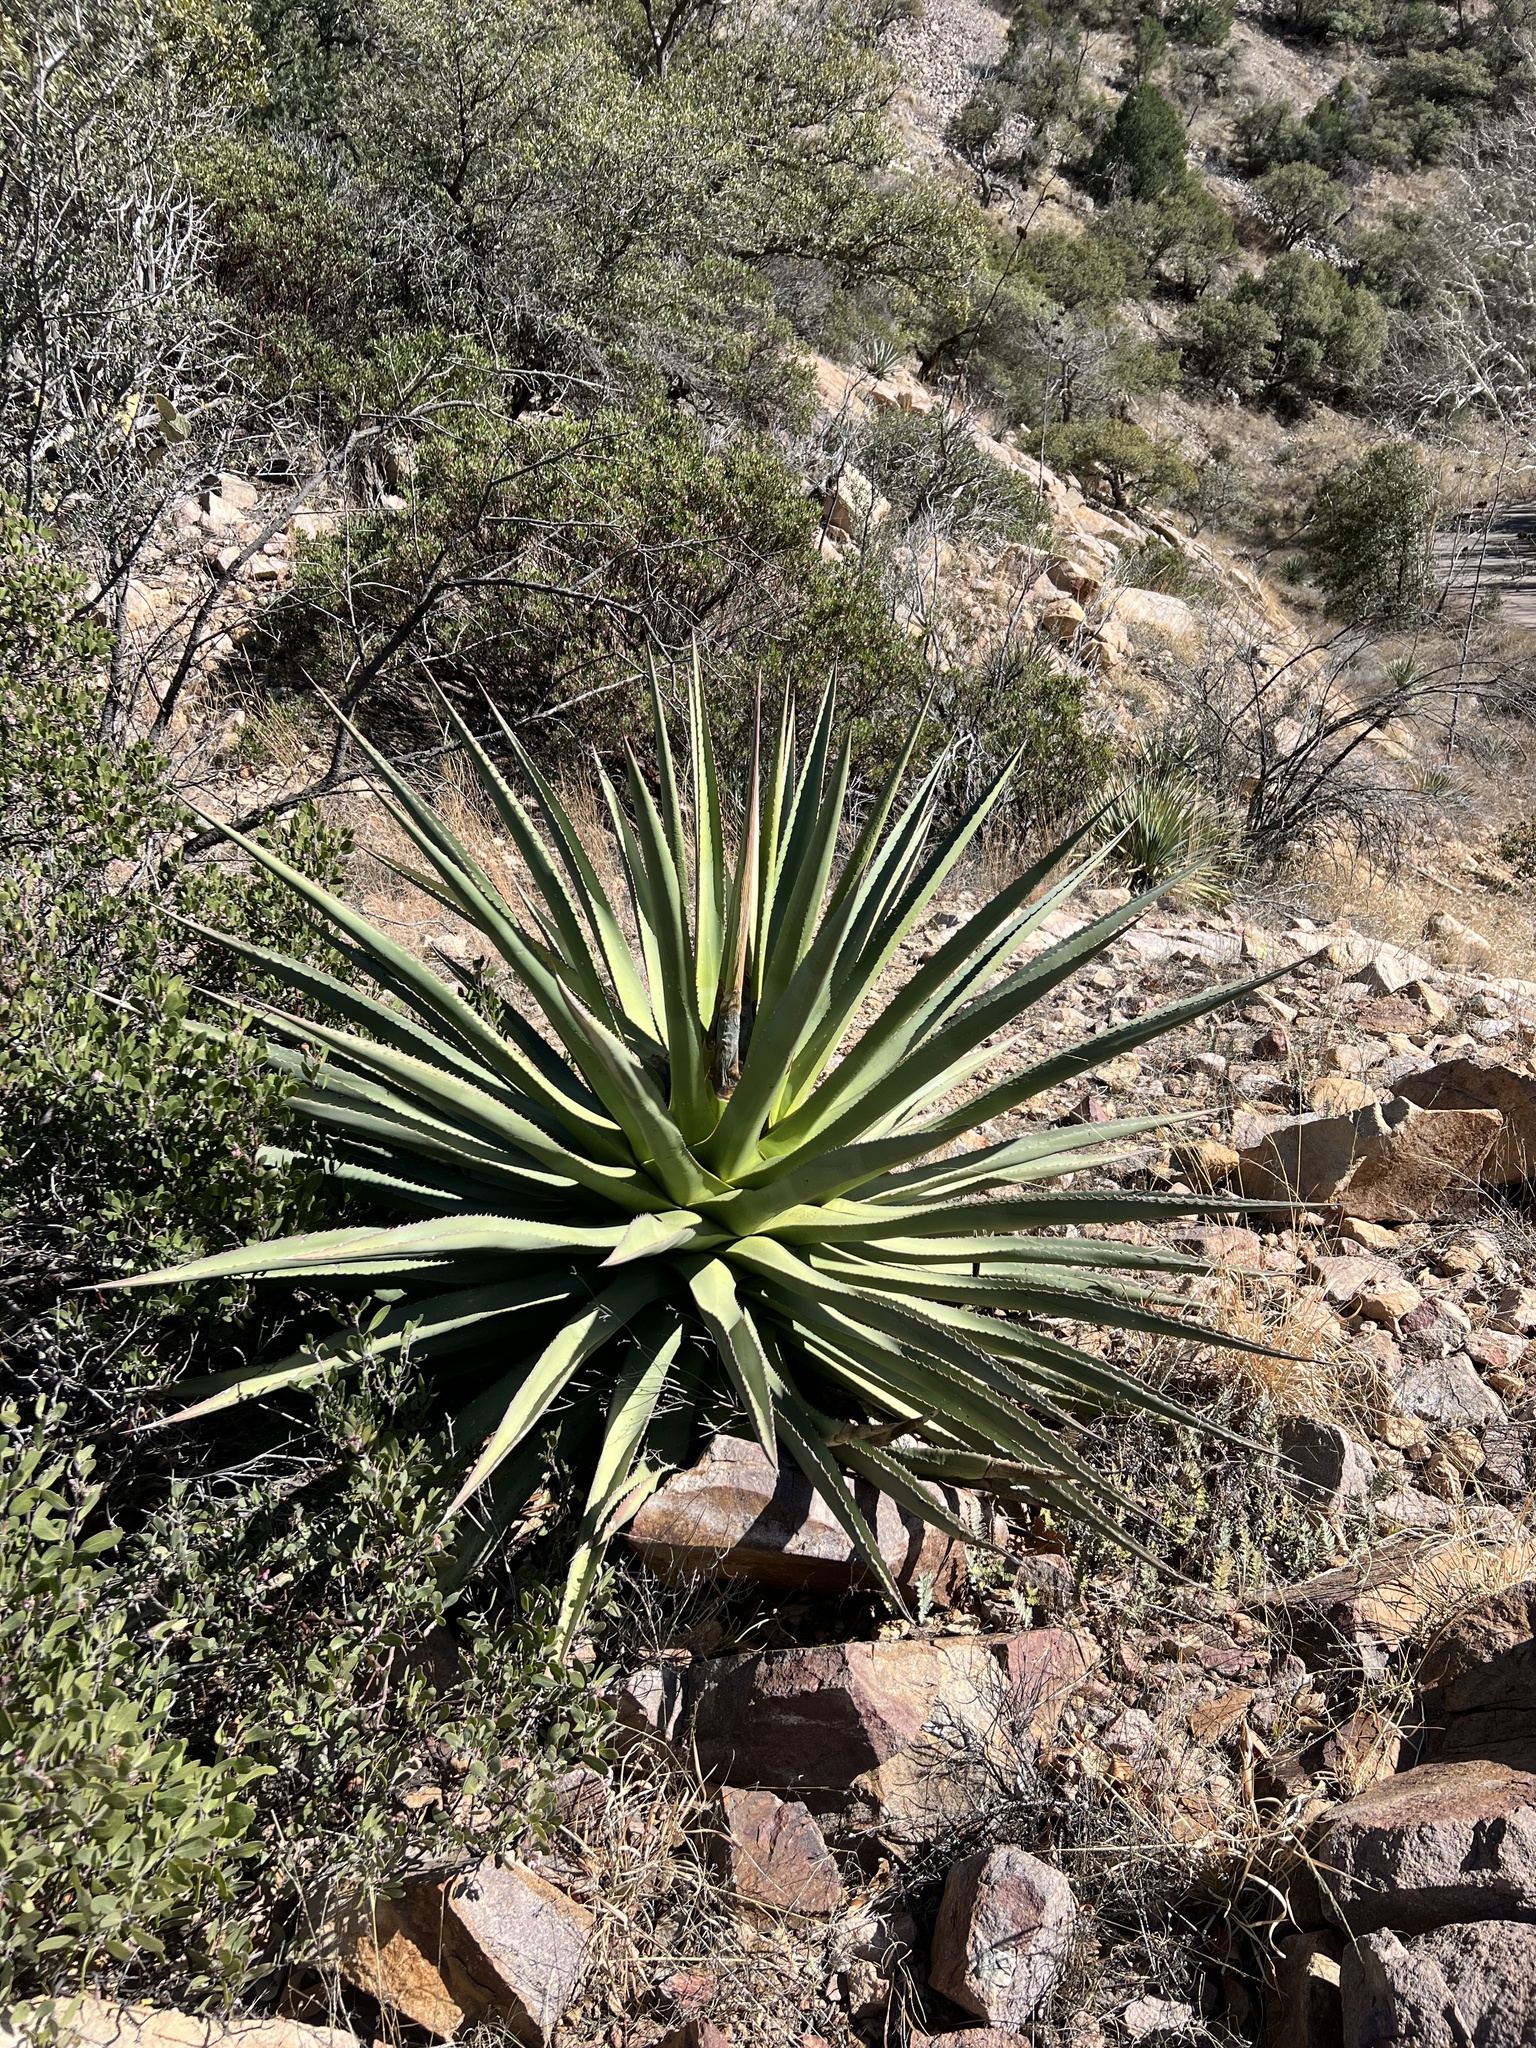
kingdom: Plantae
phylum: Tracheophyta
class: Liliopsida
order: Asparagales
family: Asparagaceae
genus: Agave
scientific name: Agave palmeri
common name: Palmer agave
